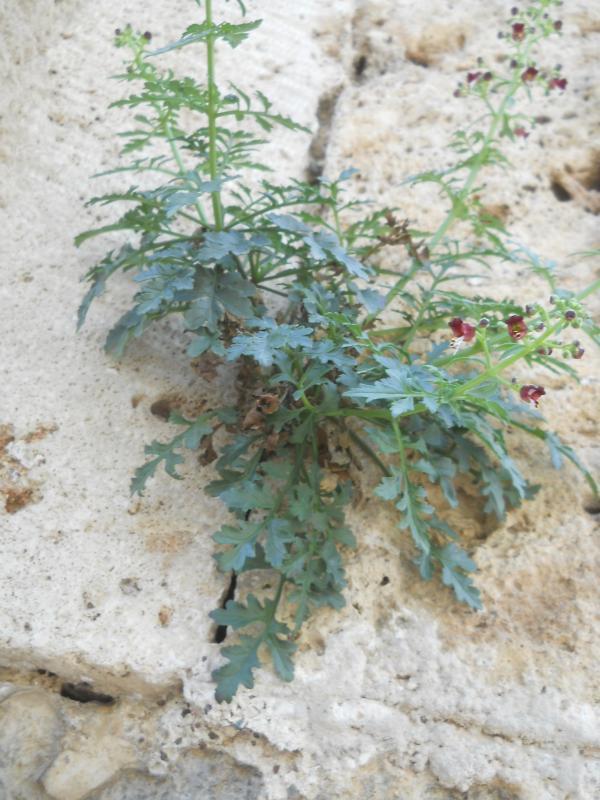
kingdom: Plantae
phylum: Tracheophyta
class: Magnoliopsida
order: Lamiales
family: Scrophulariaceae
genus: Scrophularia
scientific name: Scrophularia pinardii
